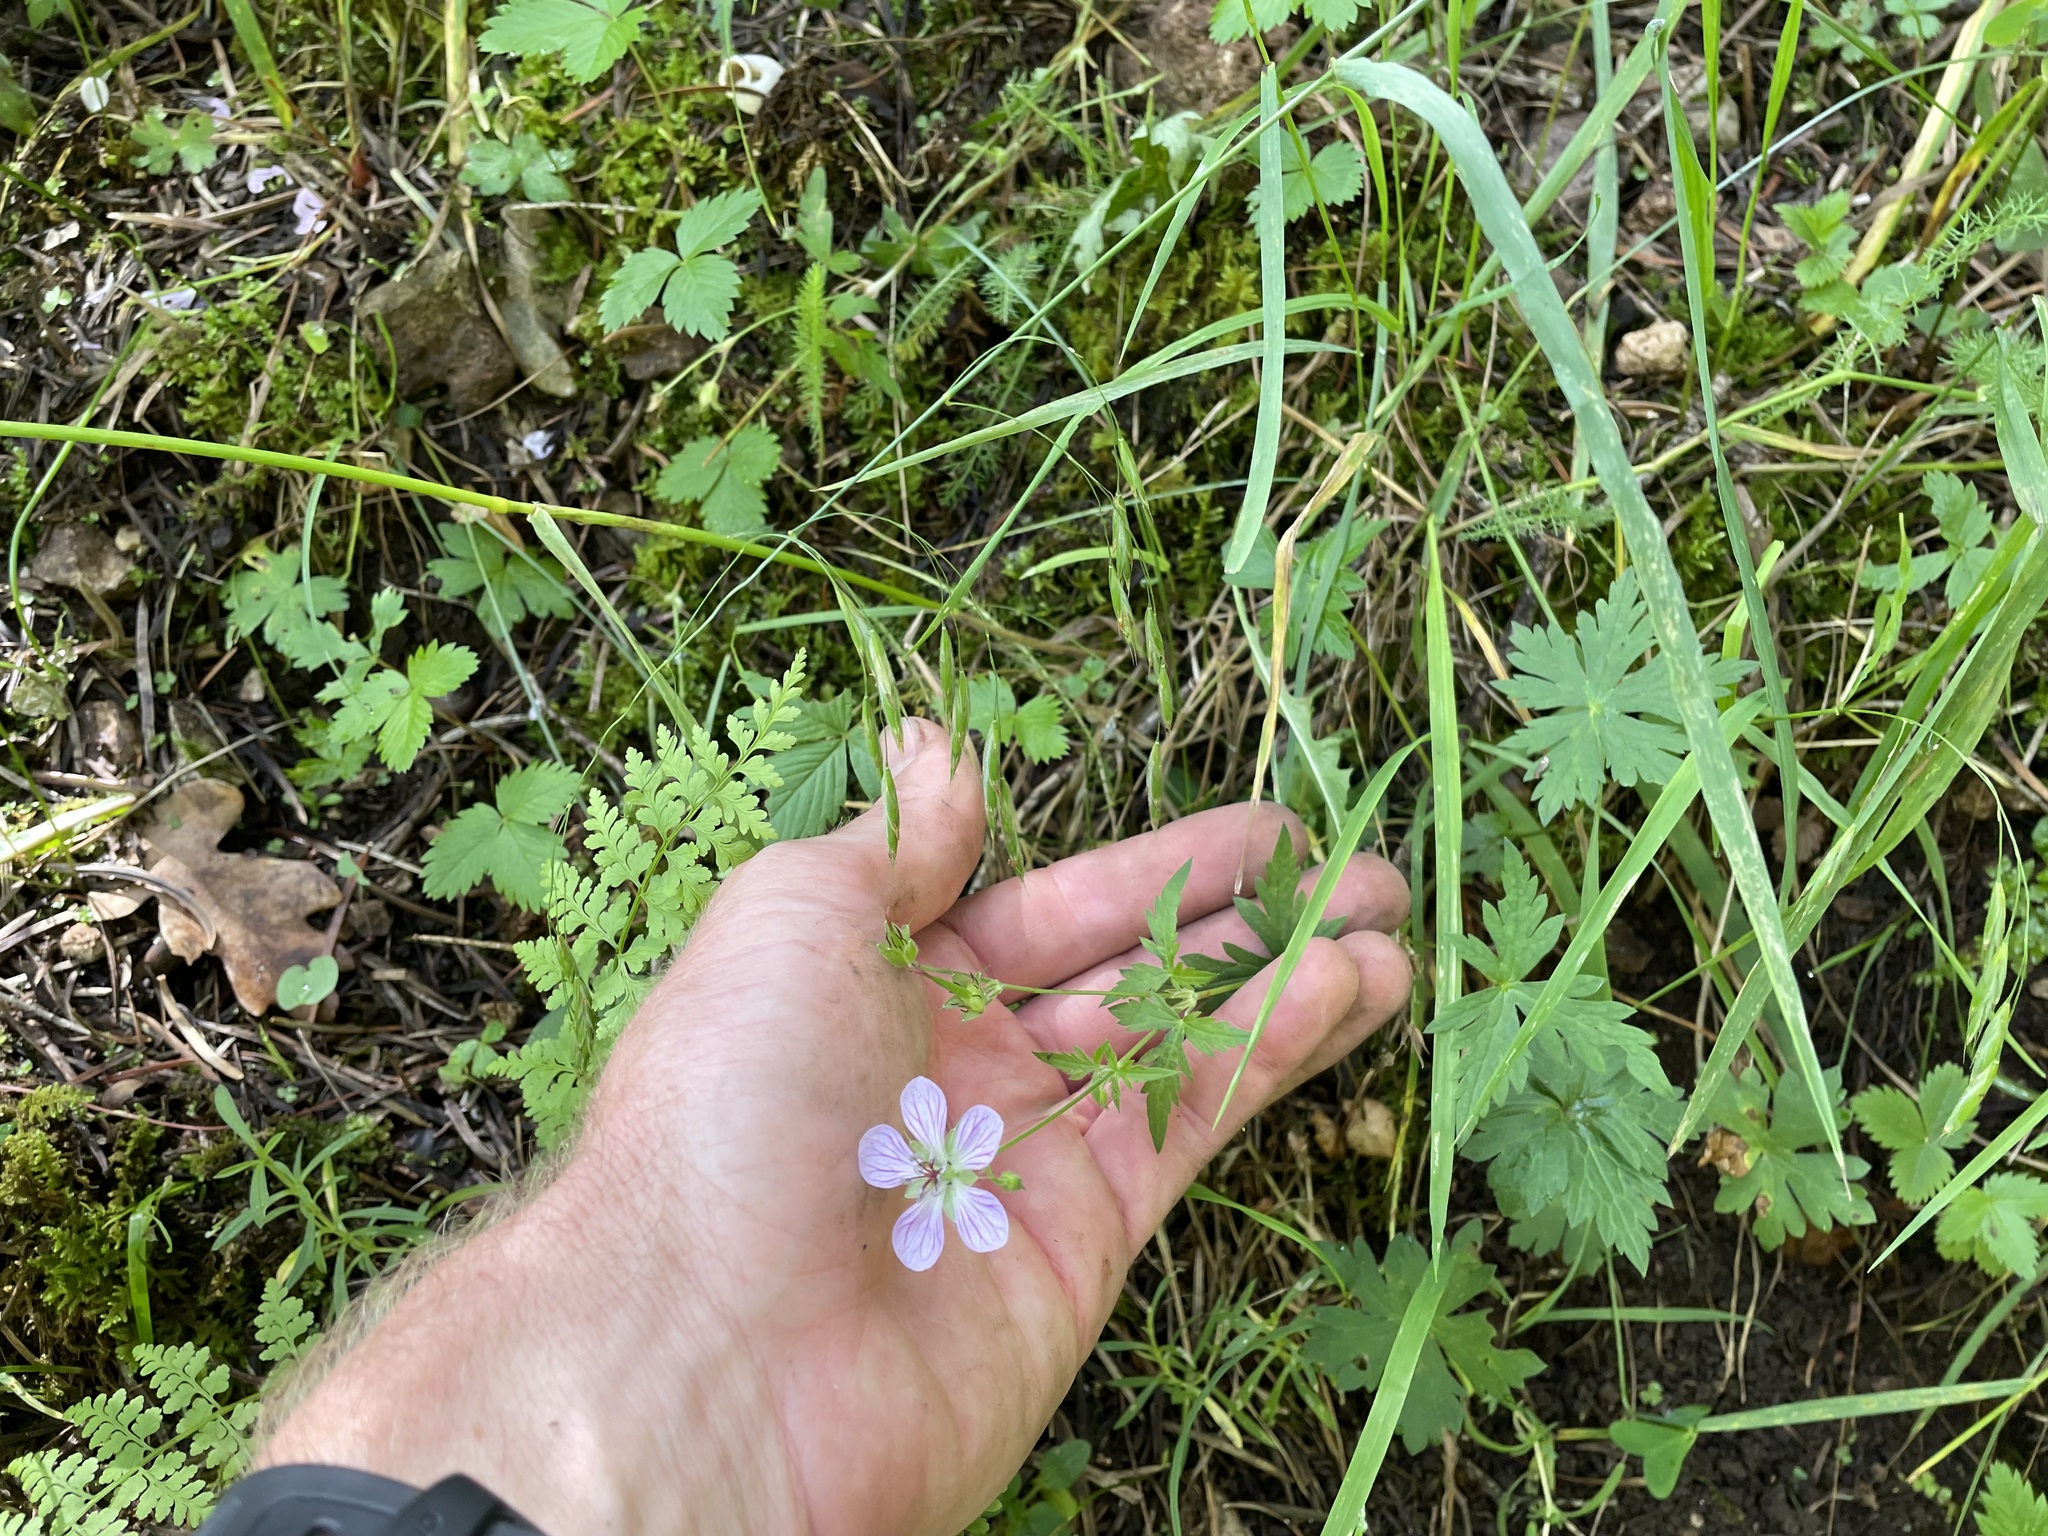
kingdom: Plantae
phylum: Tracheophyta
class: Magnoliopsida
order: Geraniales
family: Geraniaceae
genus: Geranium
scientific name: Geranium richardsonii
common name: Richardson's crane's-bill
